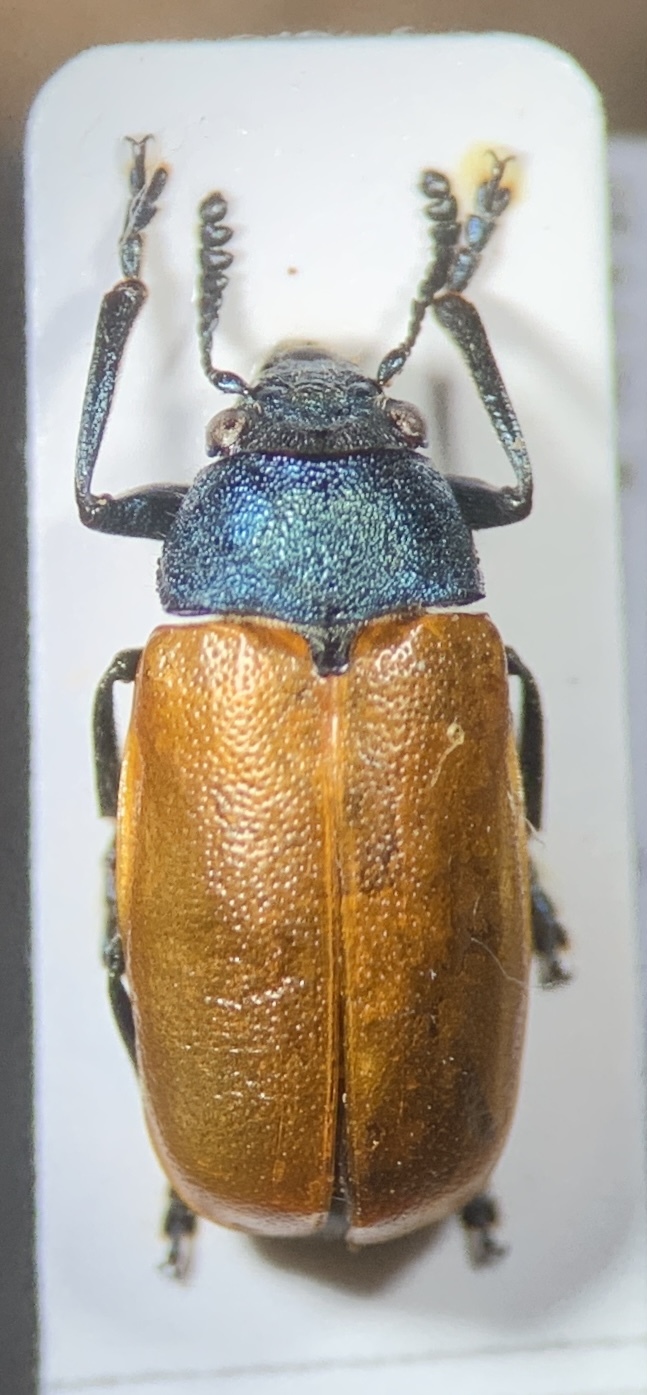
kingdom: Animalia
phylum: Arthropoda
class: Insecta
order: Coleoptera
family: Chrysomelidae
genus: Labidostomis
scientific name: Labidostomis taxicornis
